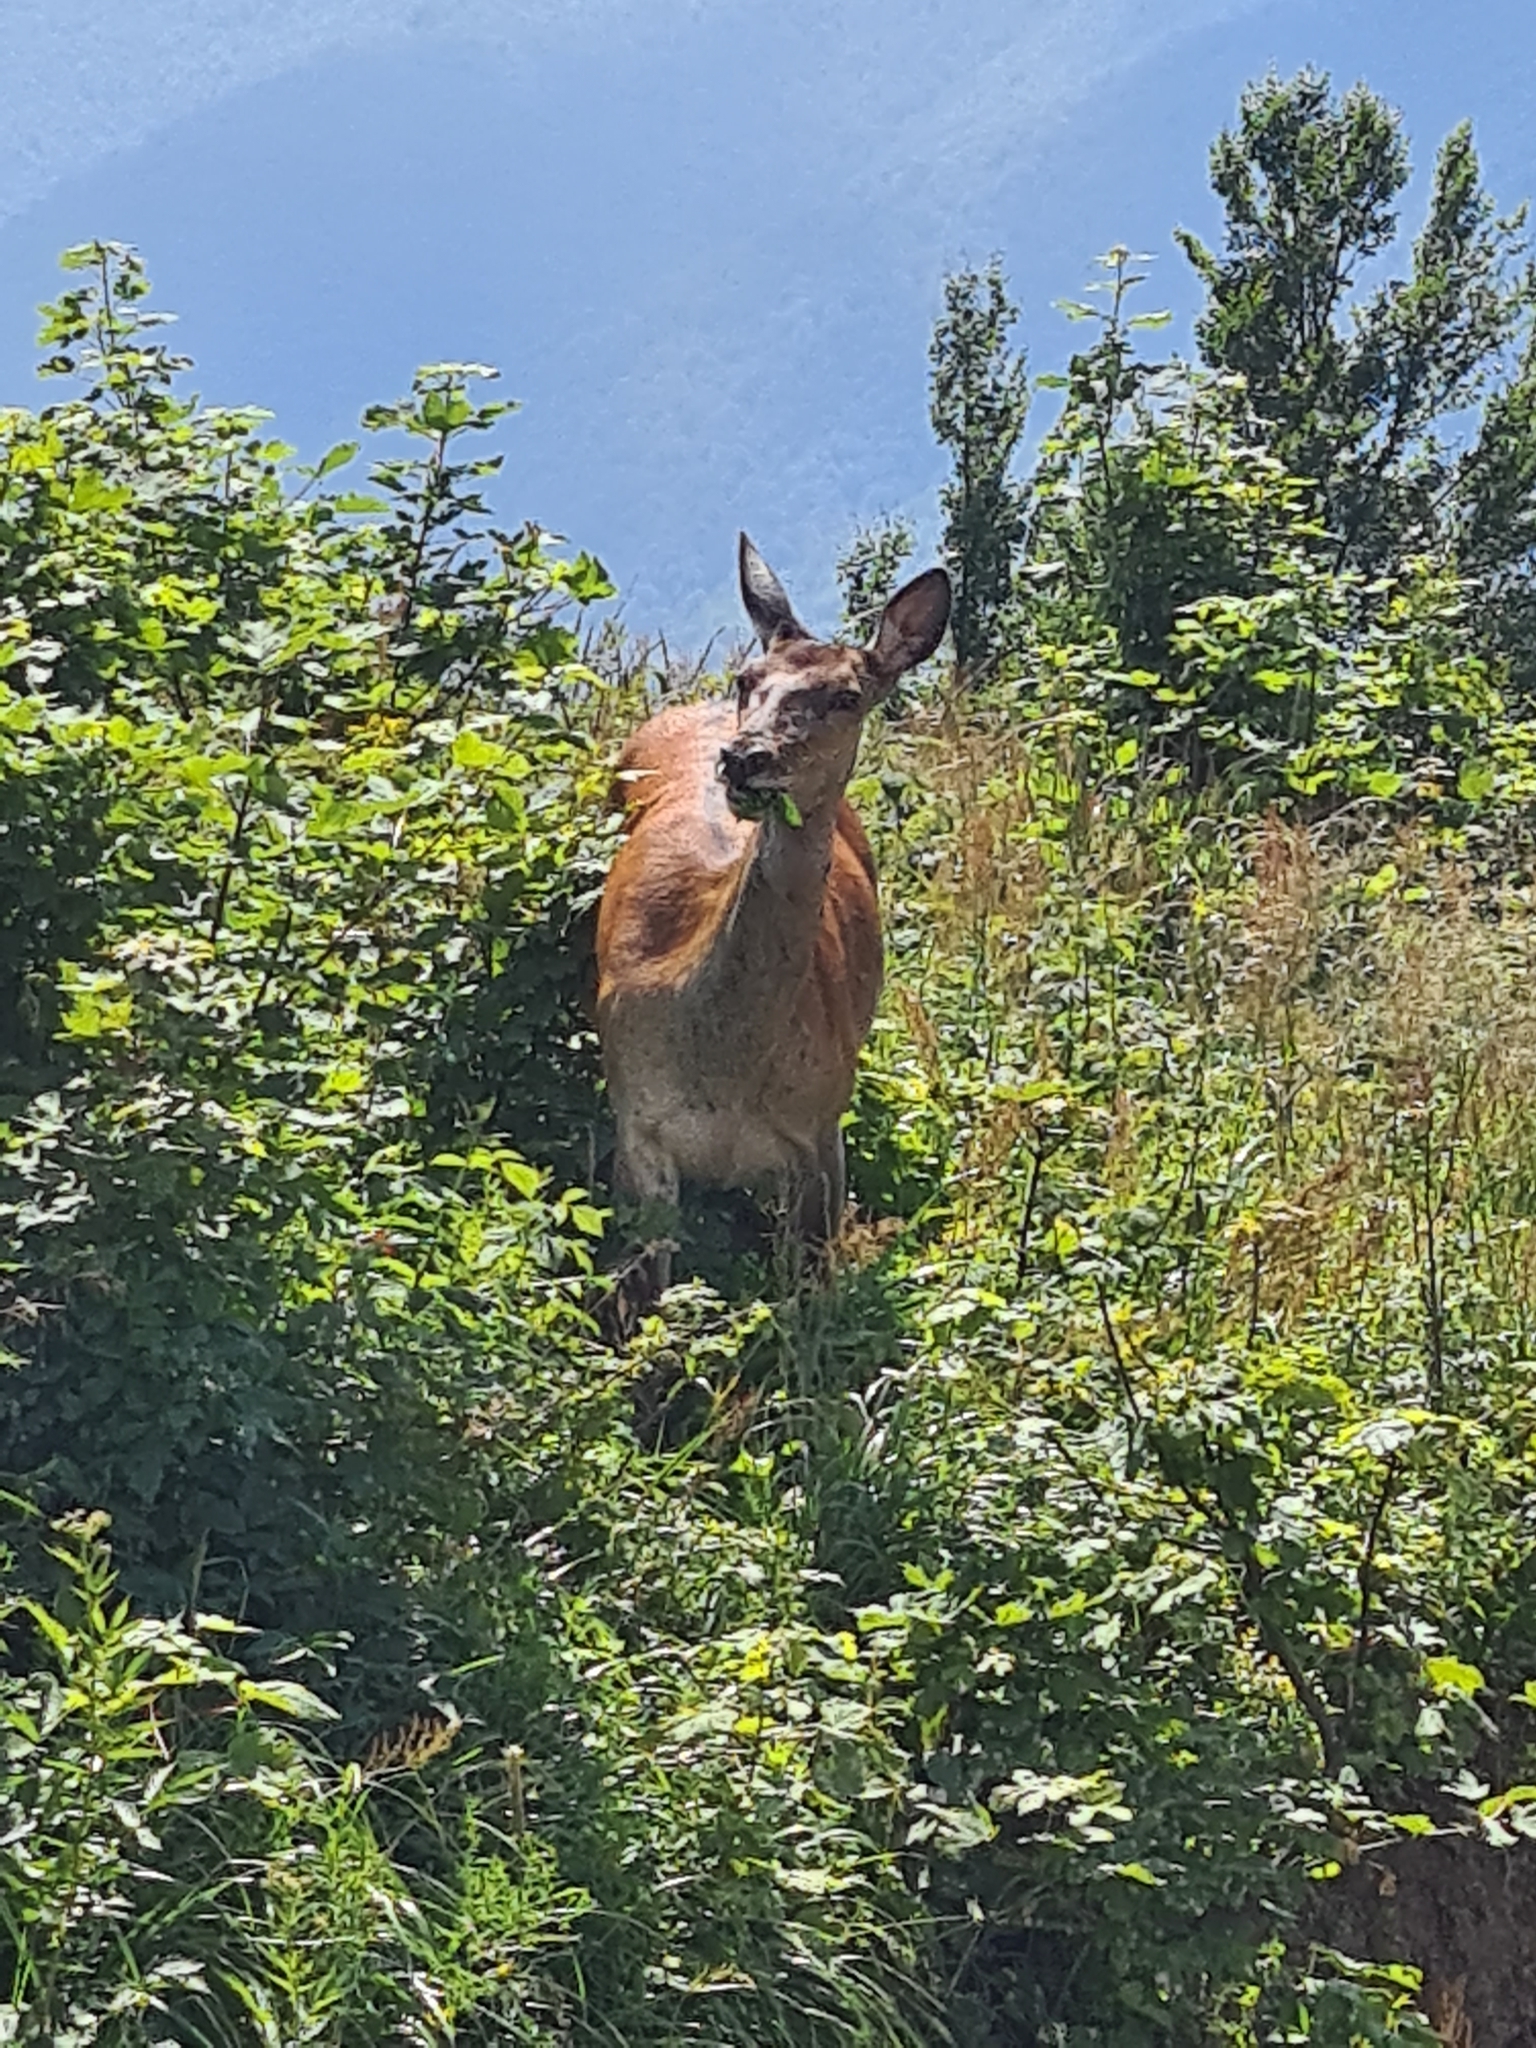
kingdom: Animalia
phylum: Chordata
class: Mammalia
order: Artiodactyla
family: Cervidae
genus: Cervus
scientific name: Cervus elaphus
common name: Red deer
